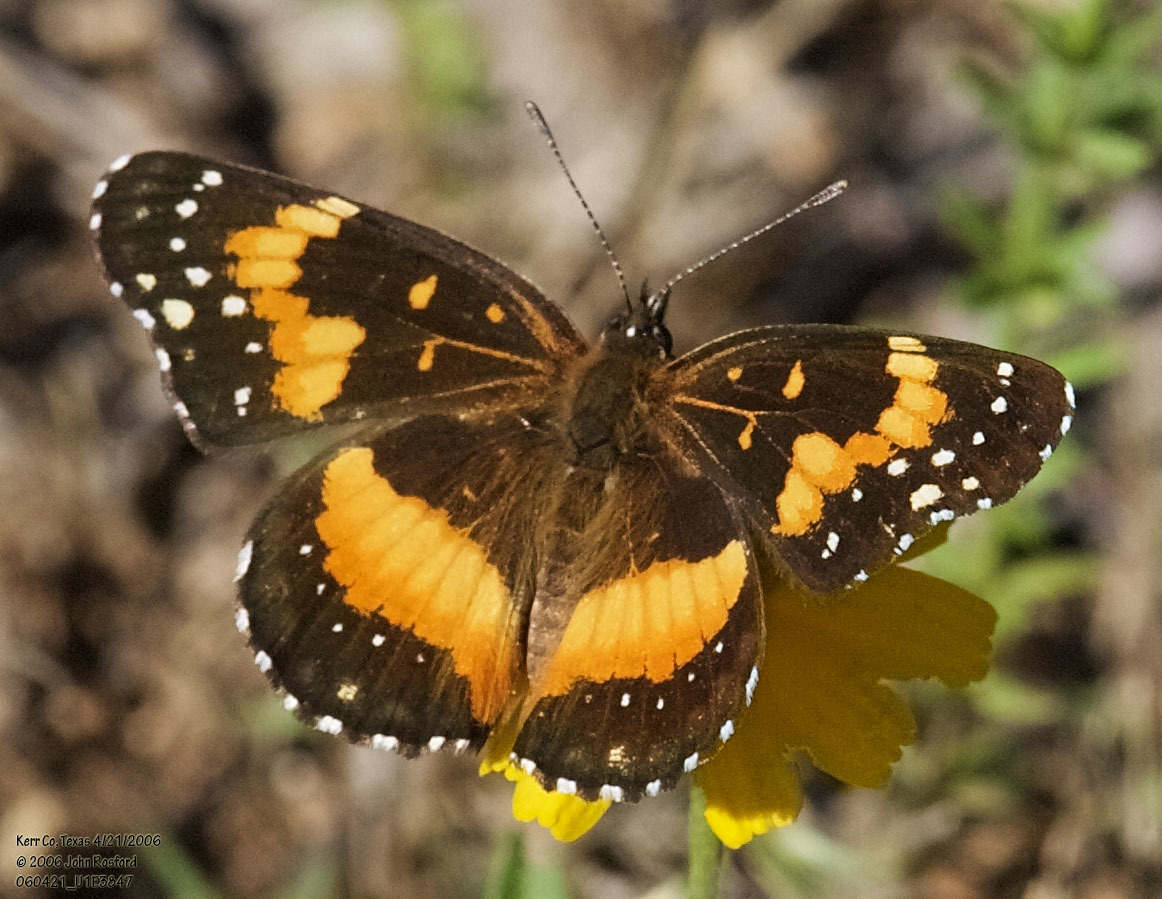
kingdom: Animalia
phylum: Arthropoda
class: Insecta
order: Lepidoptera
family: Nymphalidae
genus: Chlosyne
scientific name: Chlosyne lacinia
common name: Bordered patch
